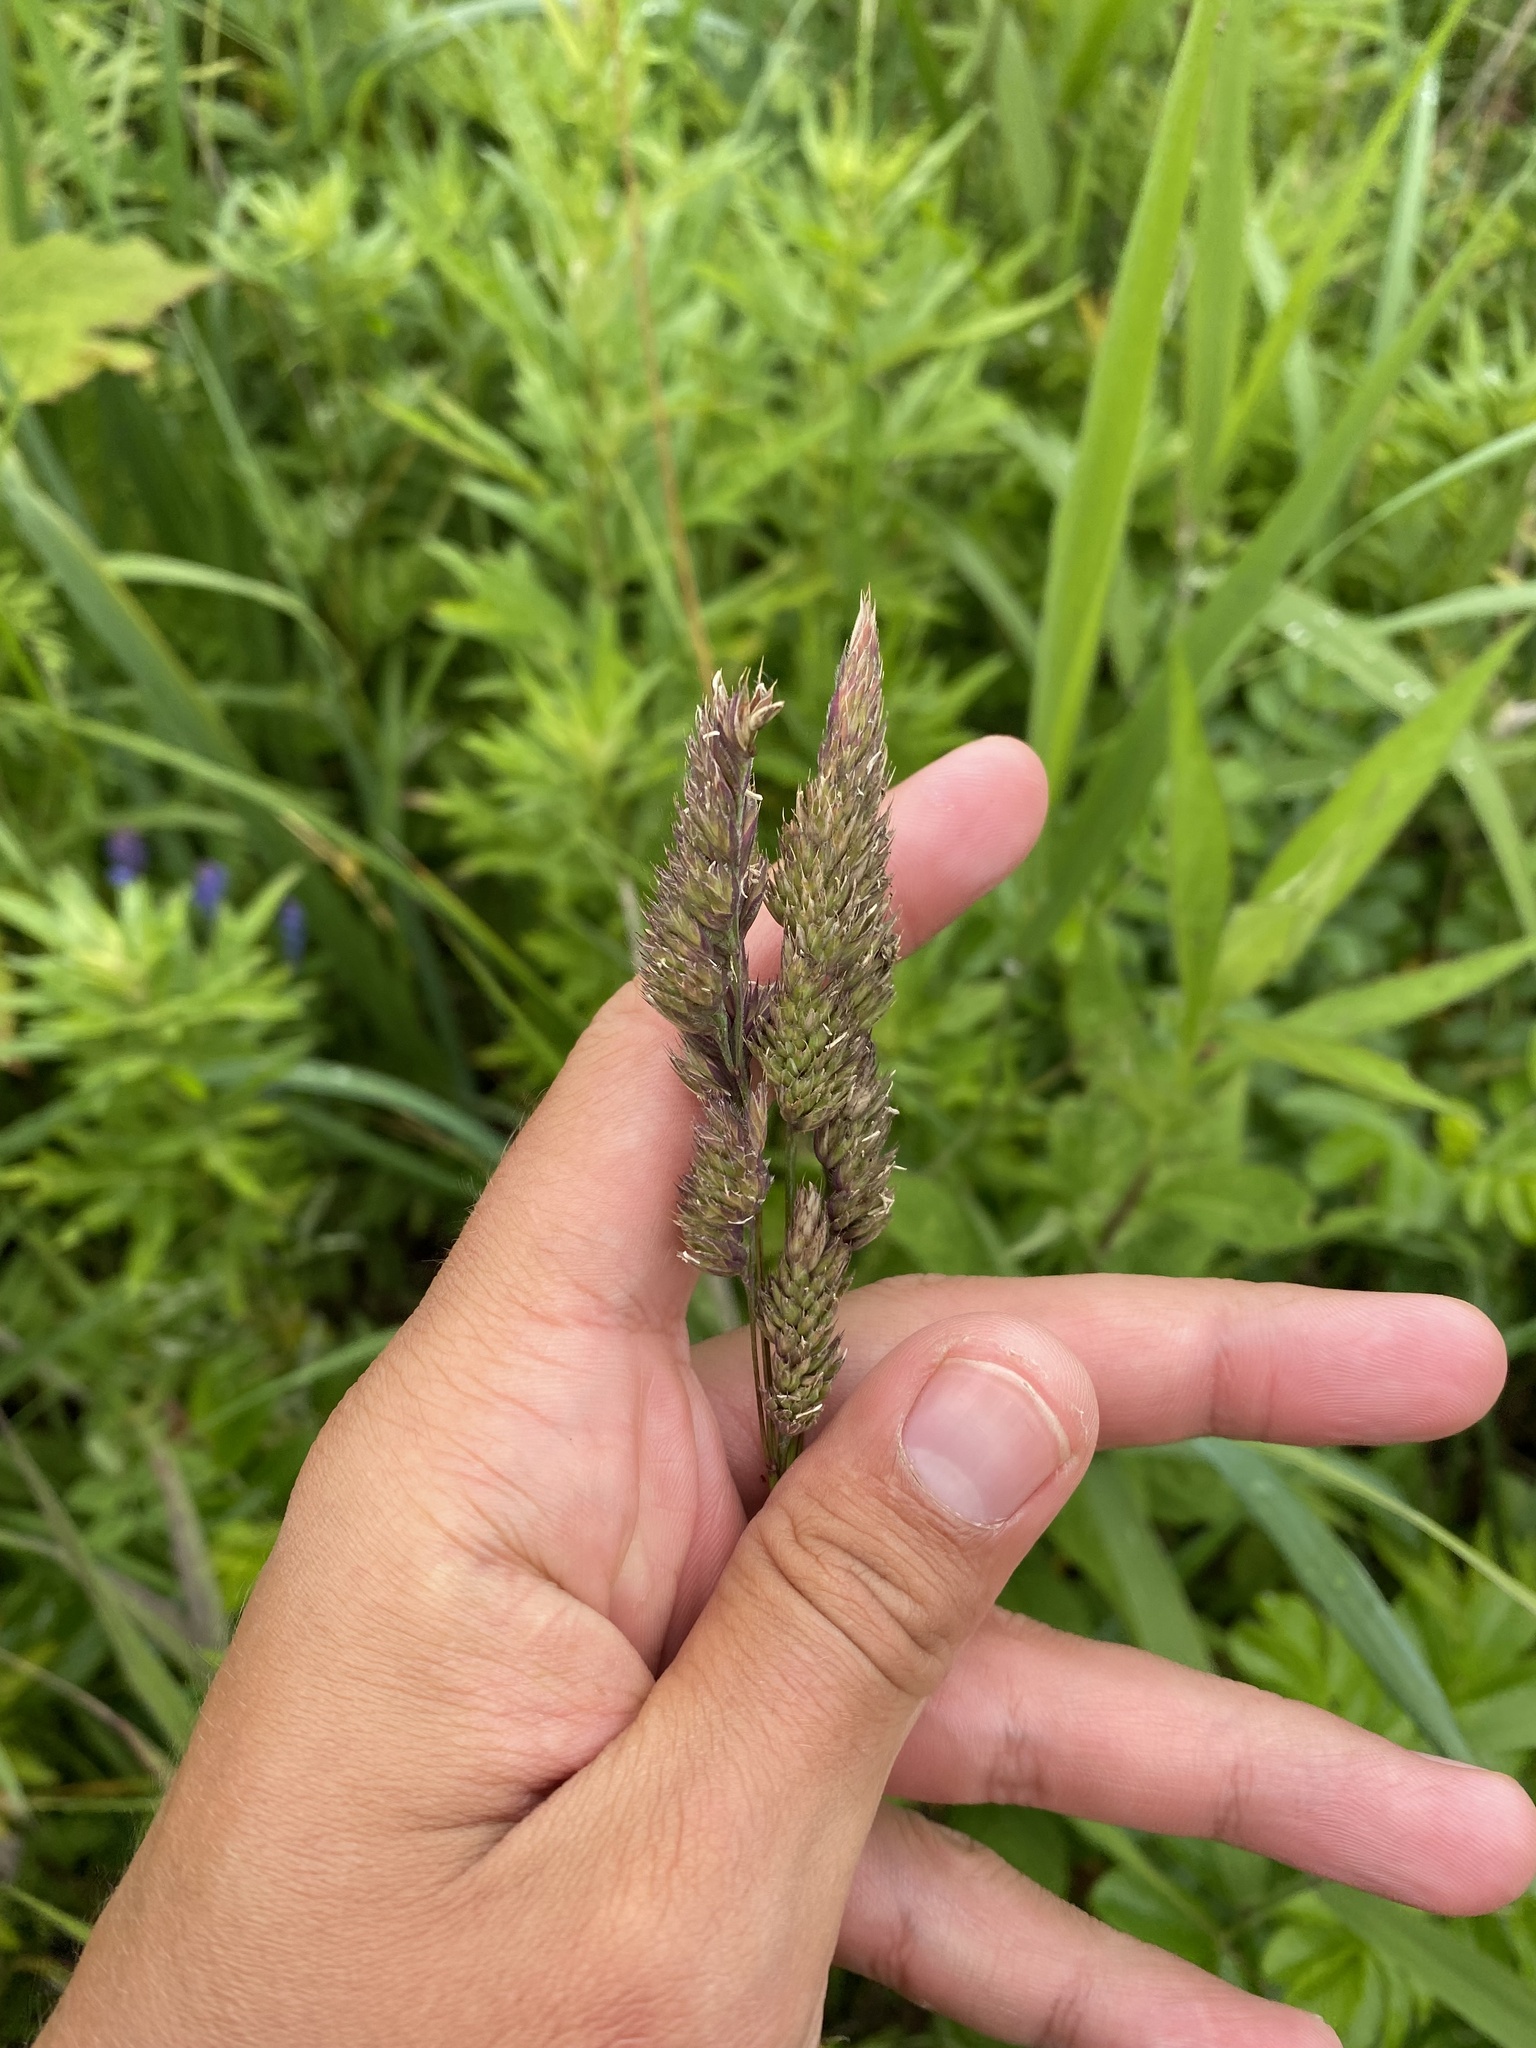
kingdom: Plantae
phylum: Tracheophyta
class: Liliopsida
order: Poales
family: Poaceae
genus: Dactylis
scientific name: Dactylis glomerata
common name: Orchardgrass
